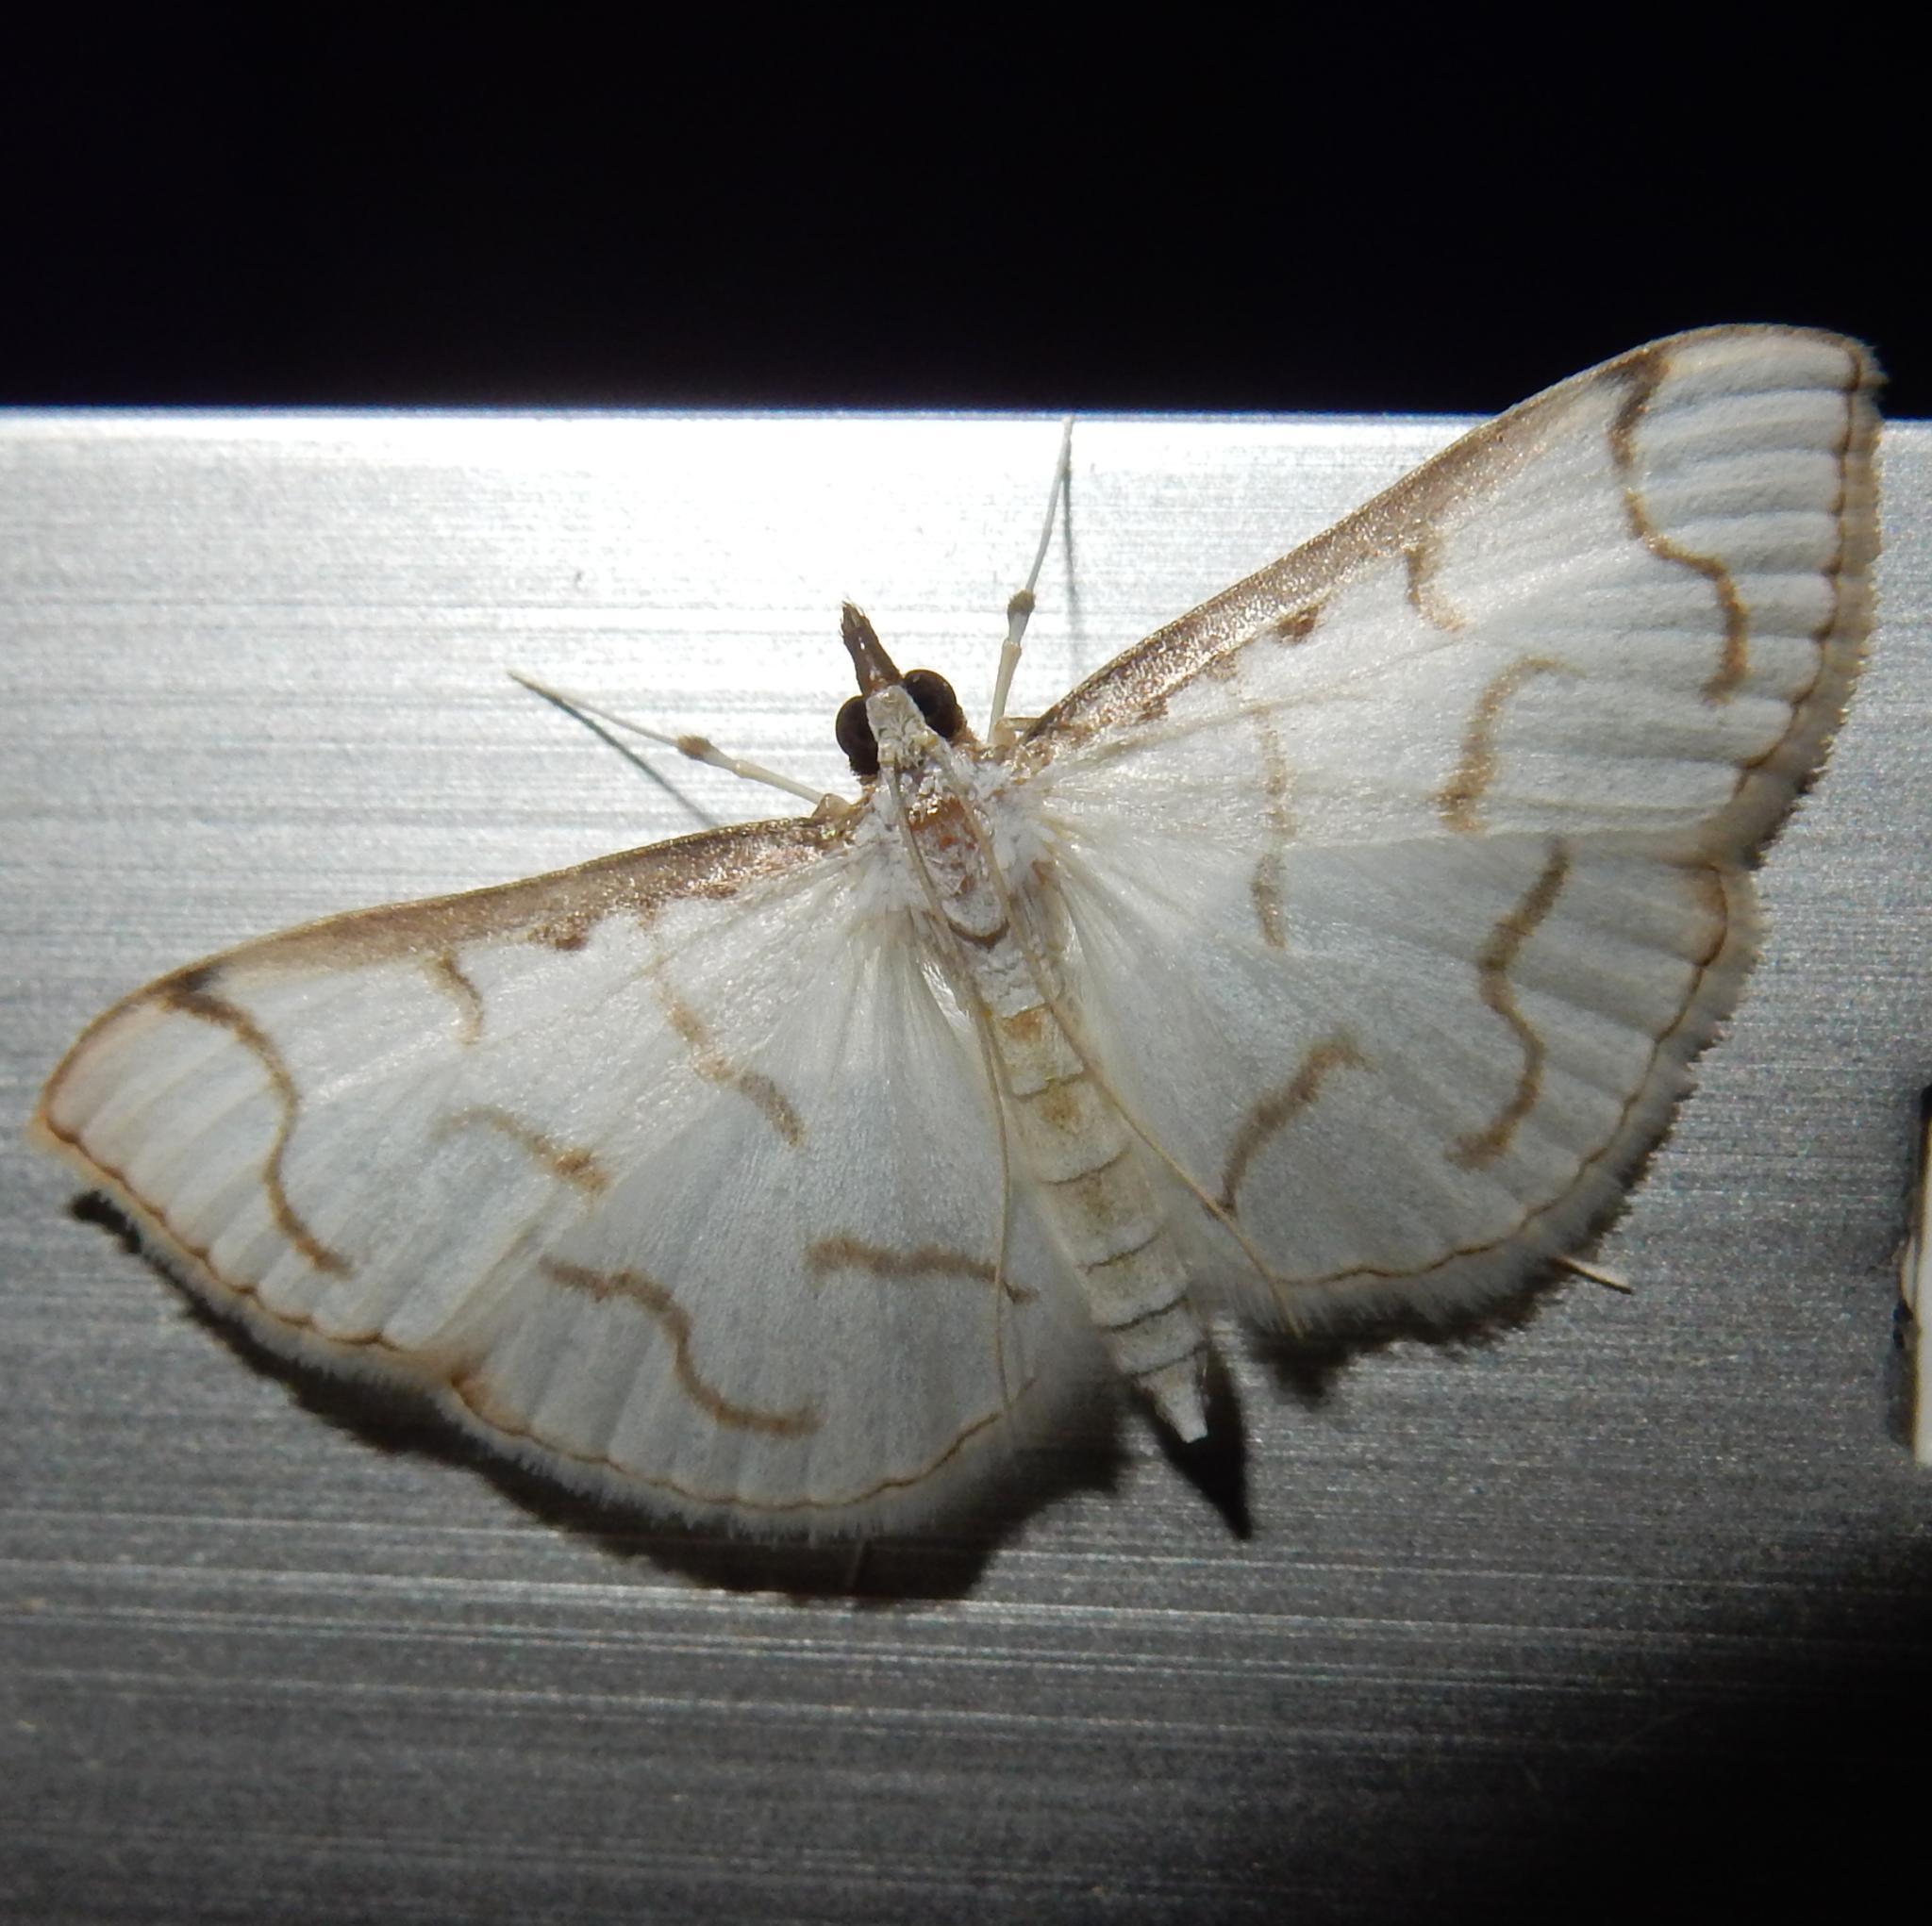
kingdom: Animalia
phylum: Arthropoda
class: Insecta
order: Lepidoptera
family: Crambidae
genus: Antigastra
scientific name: Antigastra morysalis
